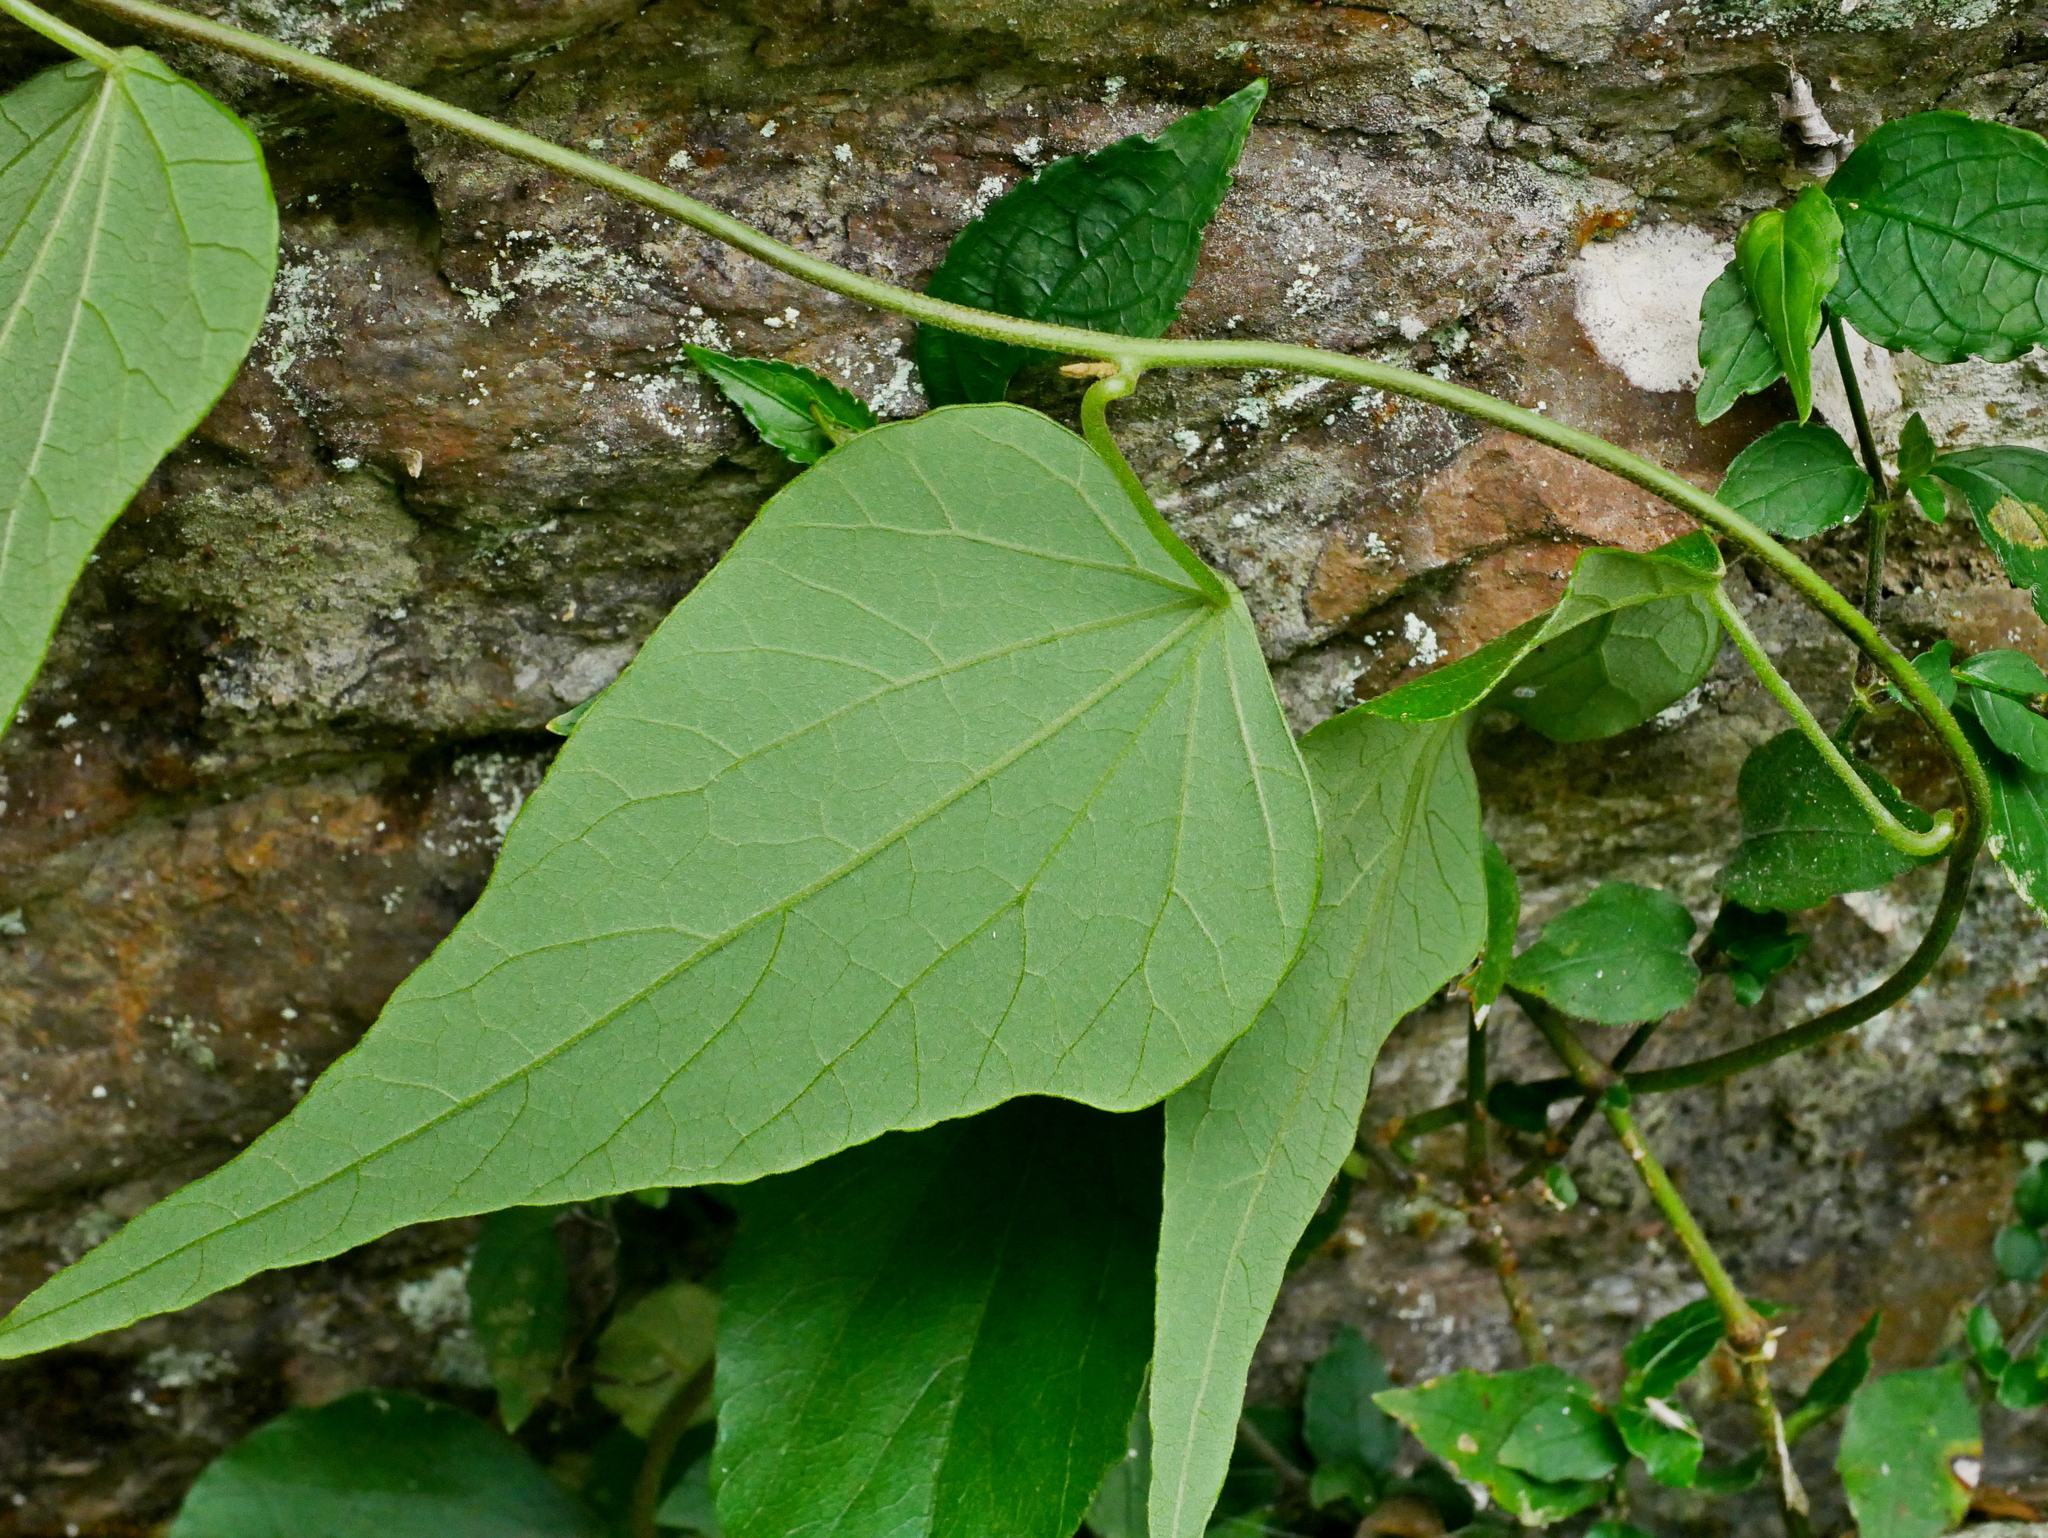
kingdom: Plantae
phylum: Tracheophyta
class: Magnoliopsida
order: Ranunculales
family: Menispermaceae
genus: Cyclea
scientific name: Cyclea ochiaiana
